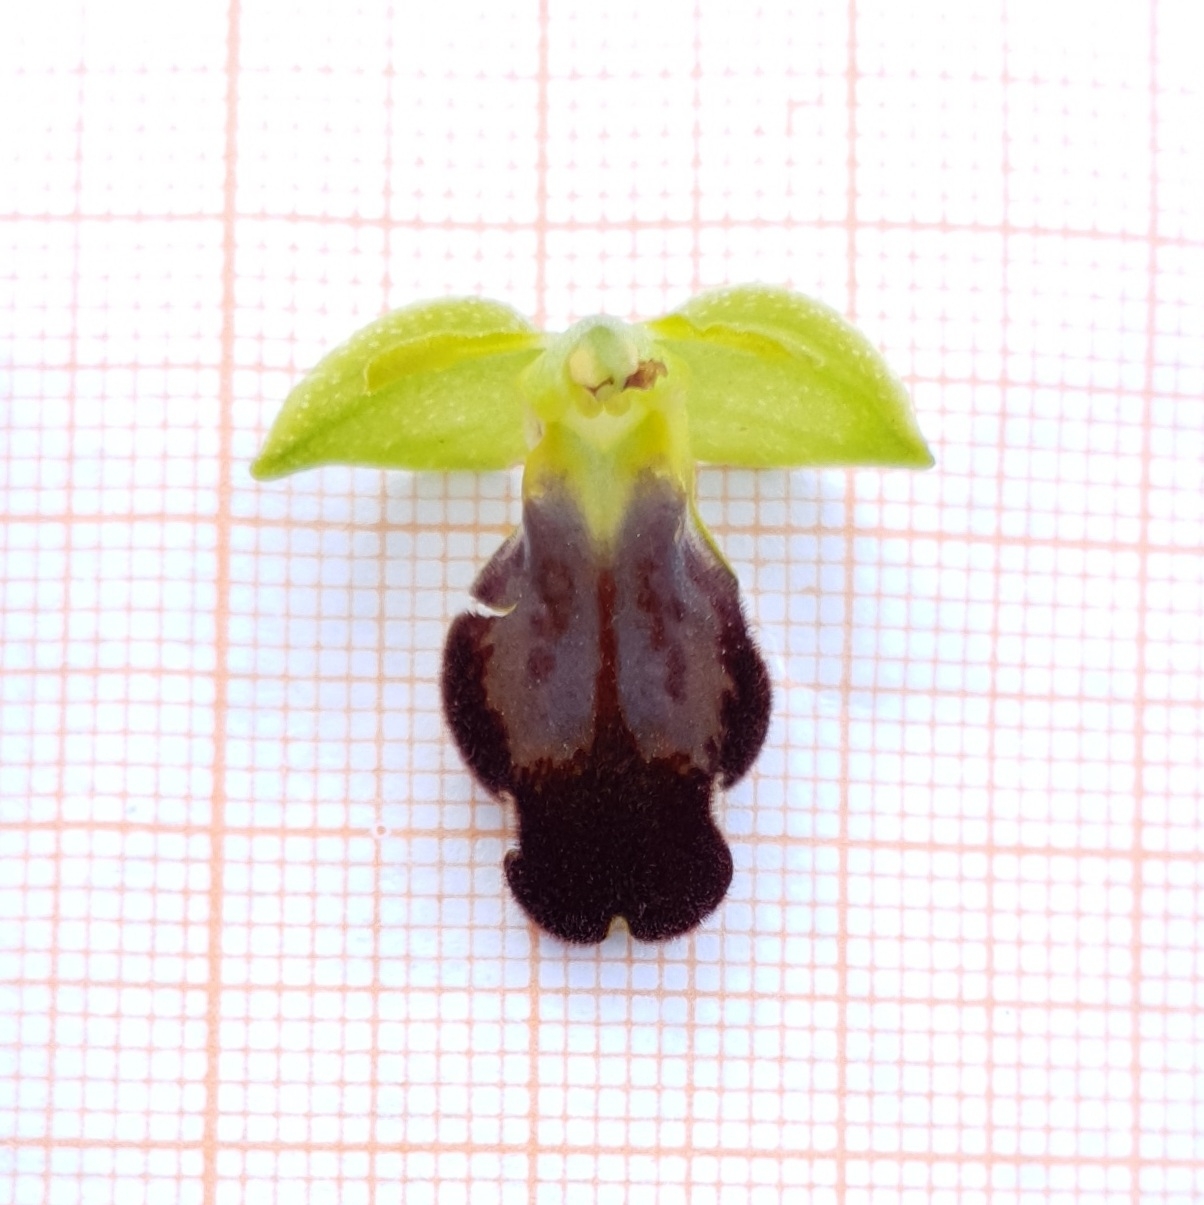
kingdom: Plantae
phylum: Tracheophyta
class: Liliopsida
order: Asparagales
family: Orchidaceae
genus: Ophrys
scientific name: Ophrys fusca
